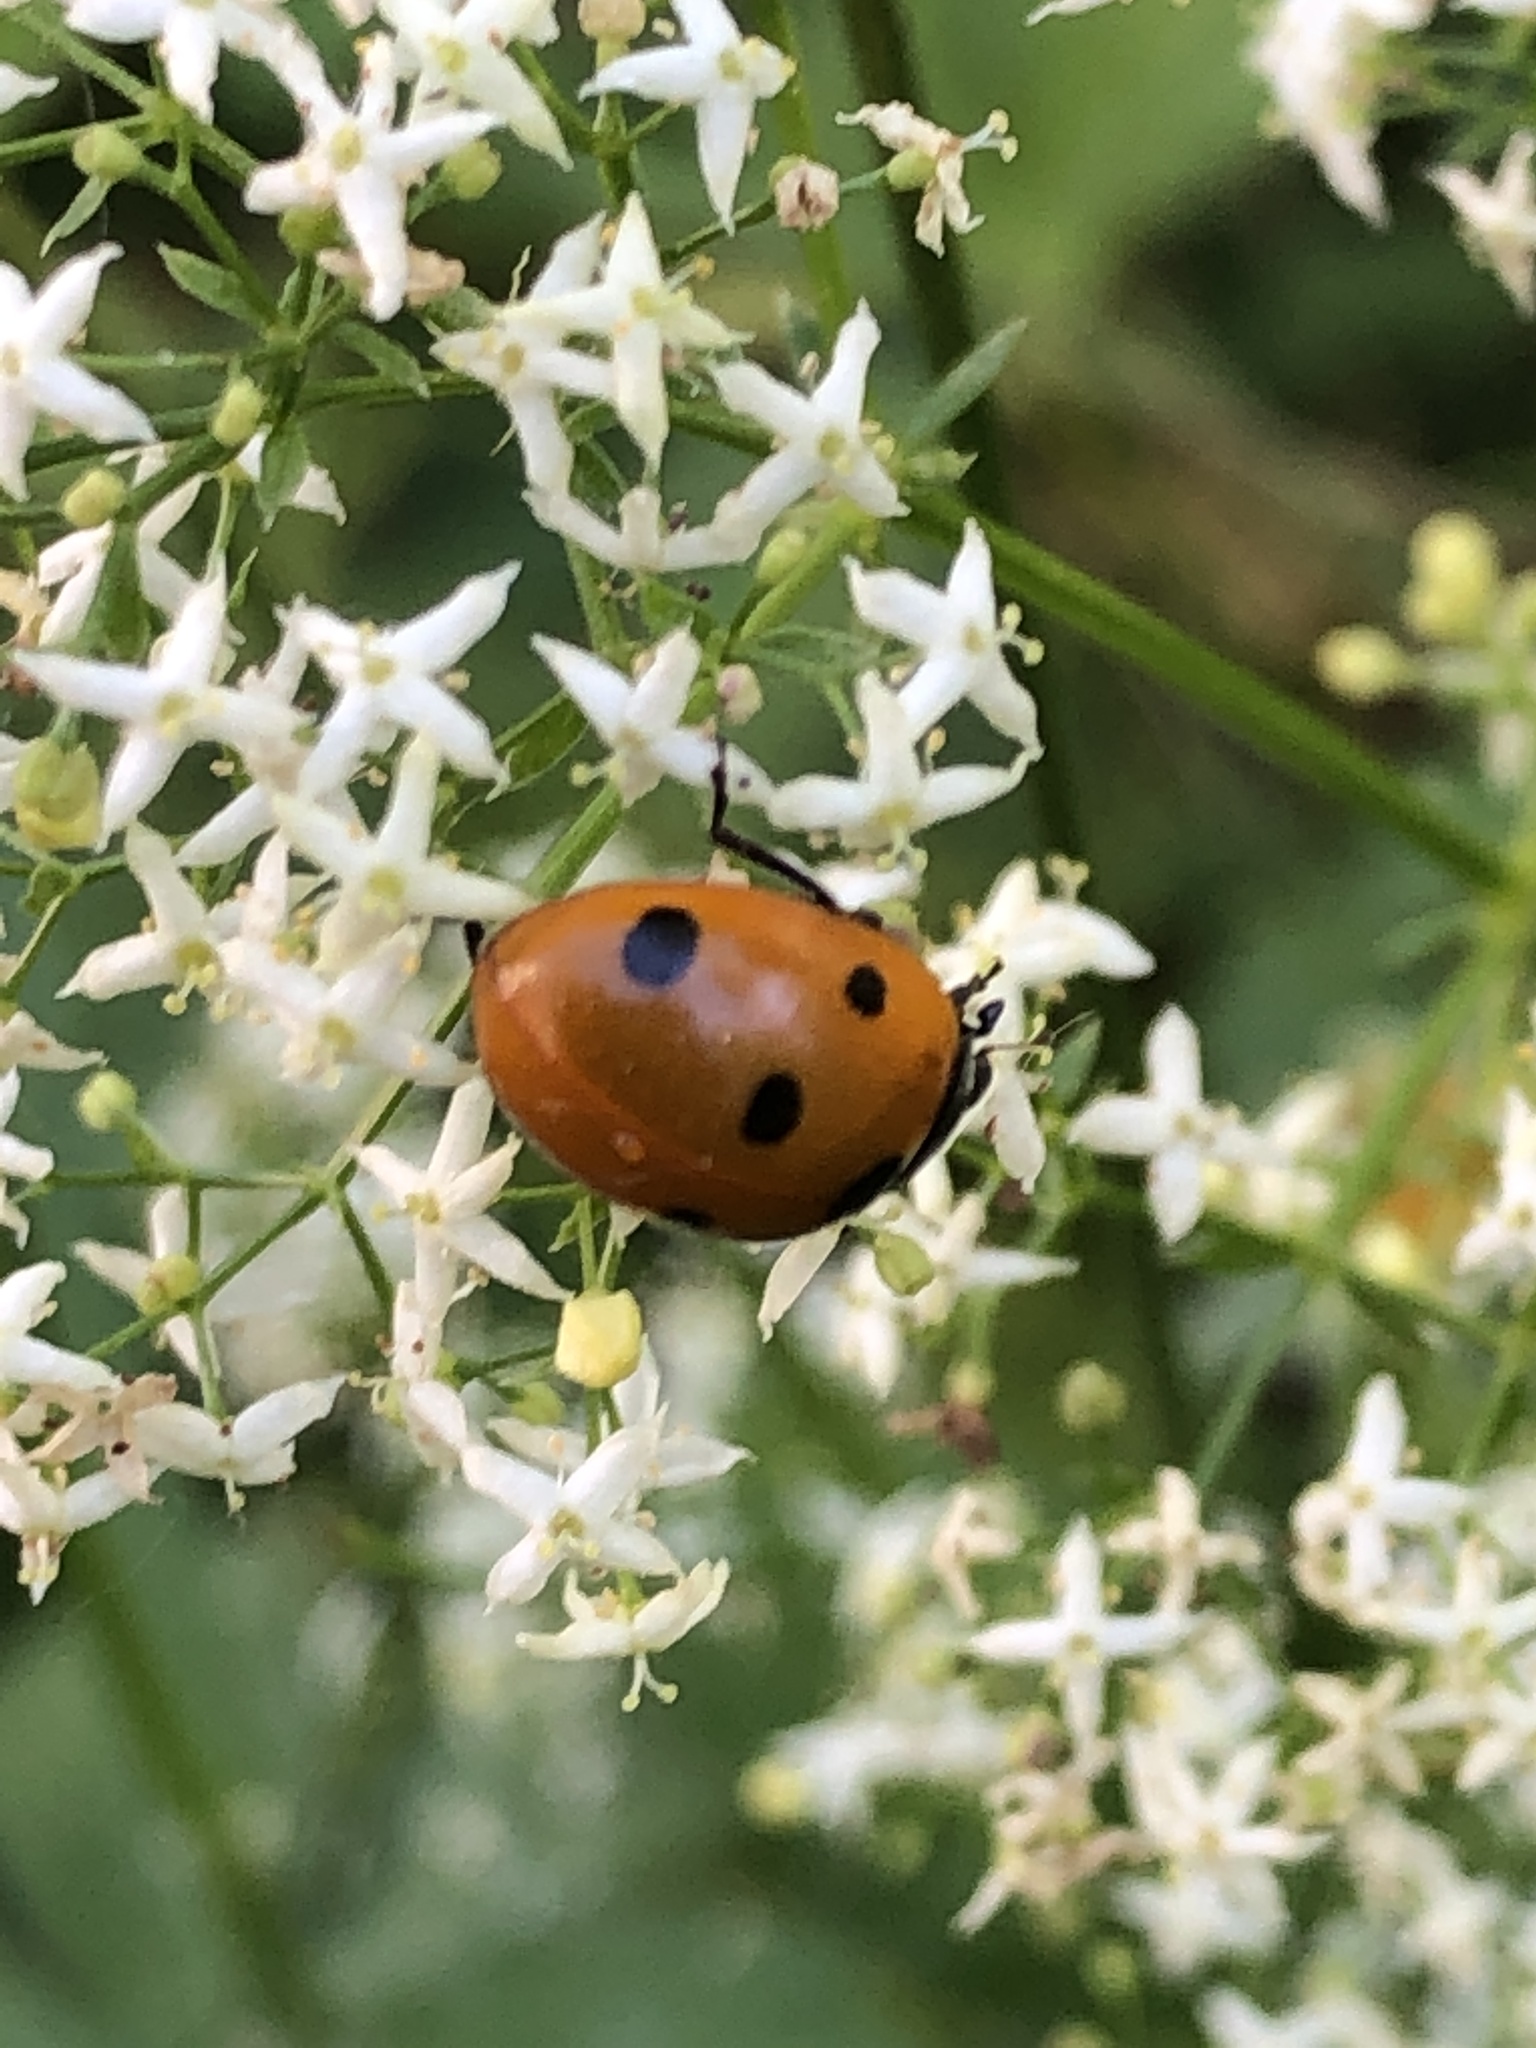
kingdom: Animalia
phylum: Arthropoda
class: Insecta
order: Coleoptera
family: Coccinellidae
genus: Coccinella
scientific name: Coccinella septempunctata
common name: Sevenspotted lady beetle
